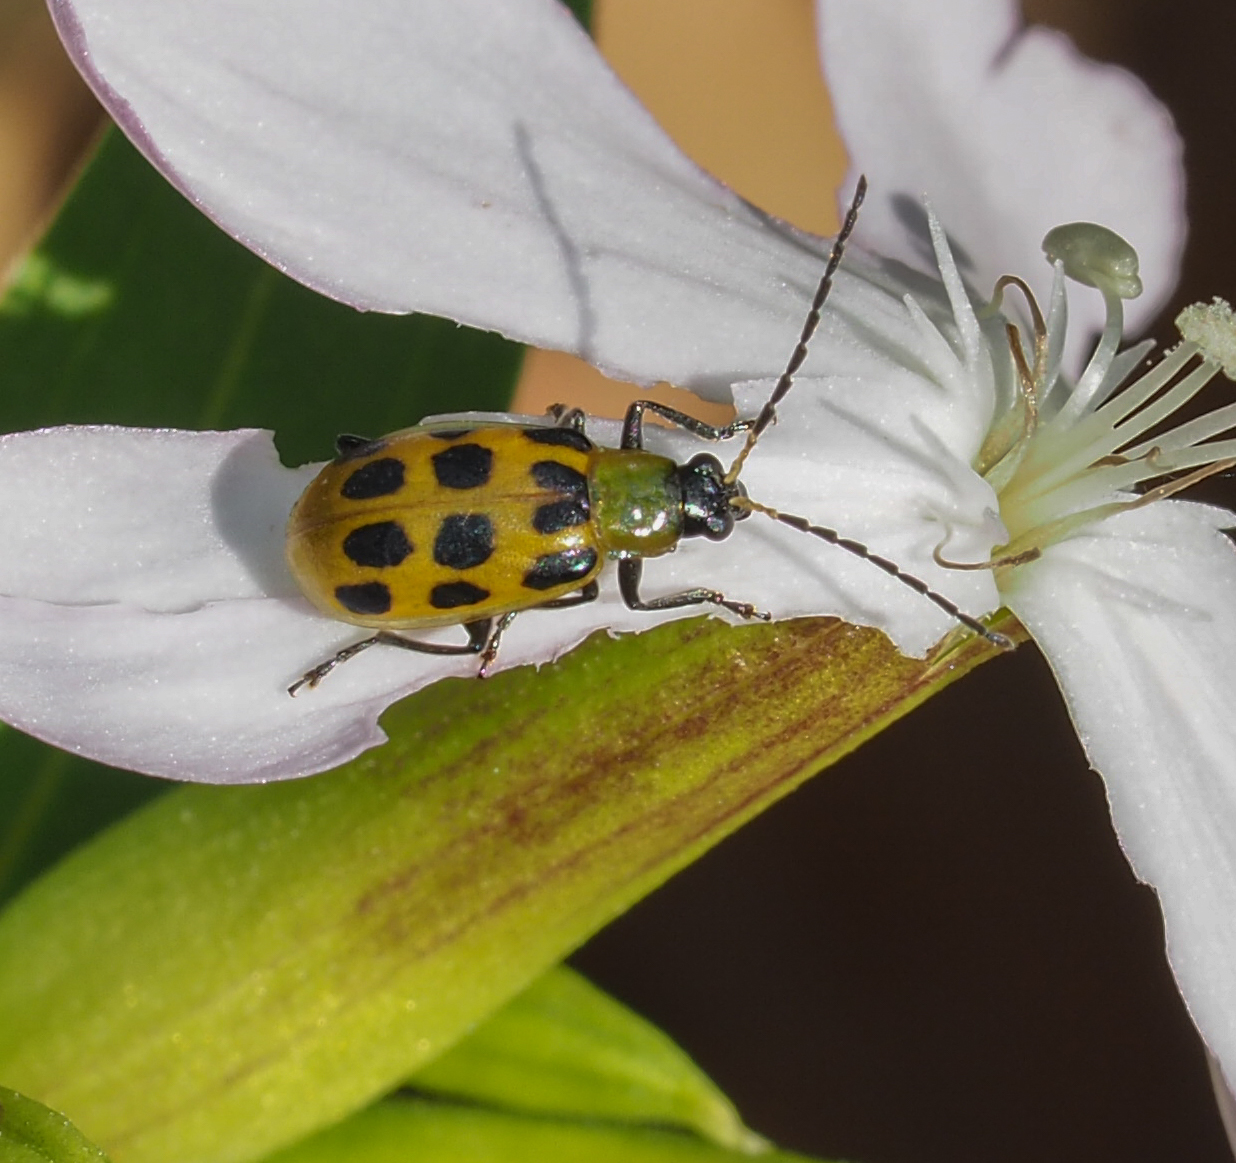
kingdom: Animalia
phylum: Arthropoda
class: Insecta
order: Coleoptera
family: Chrysomelidae
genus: Diabrotica
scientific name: Diabrotica undecimpunctata
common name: Spotted cucumber beetle
